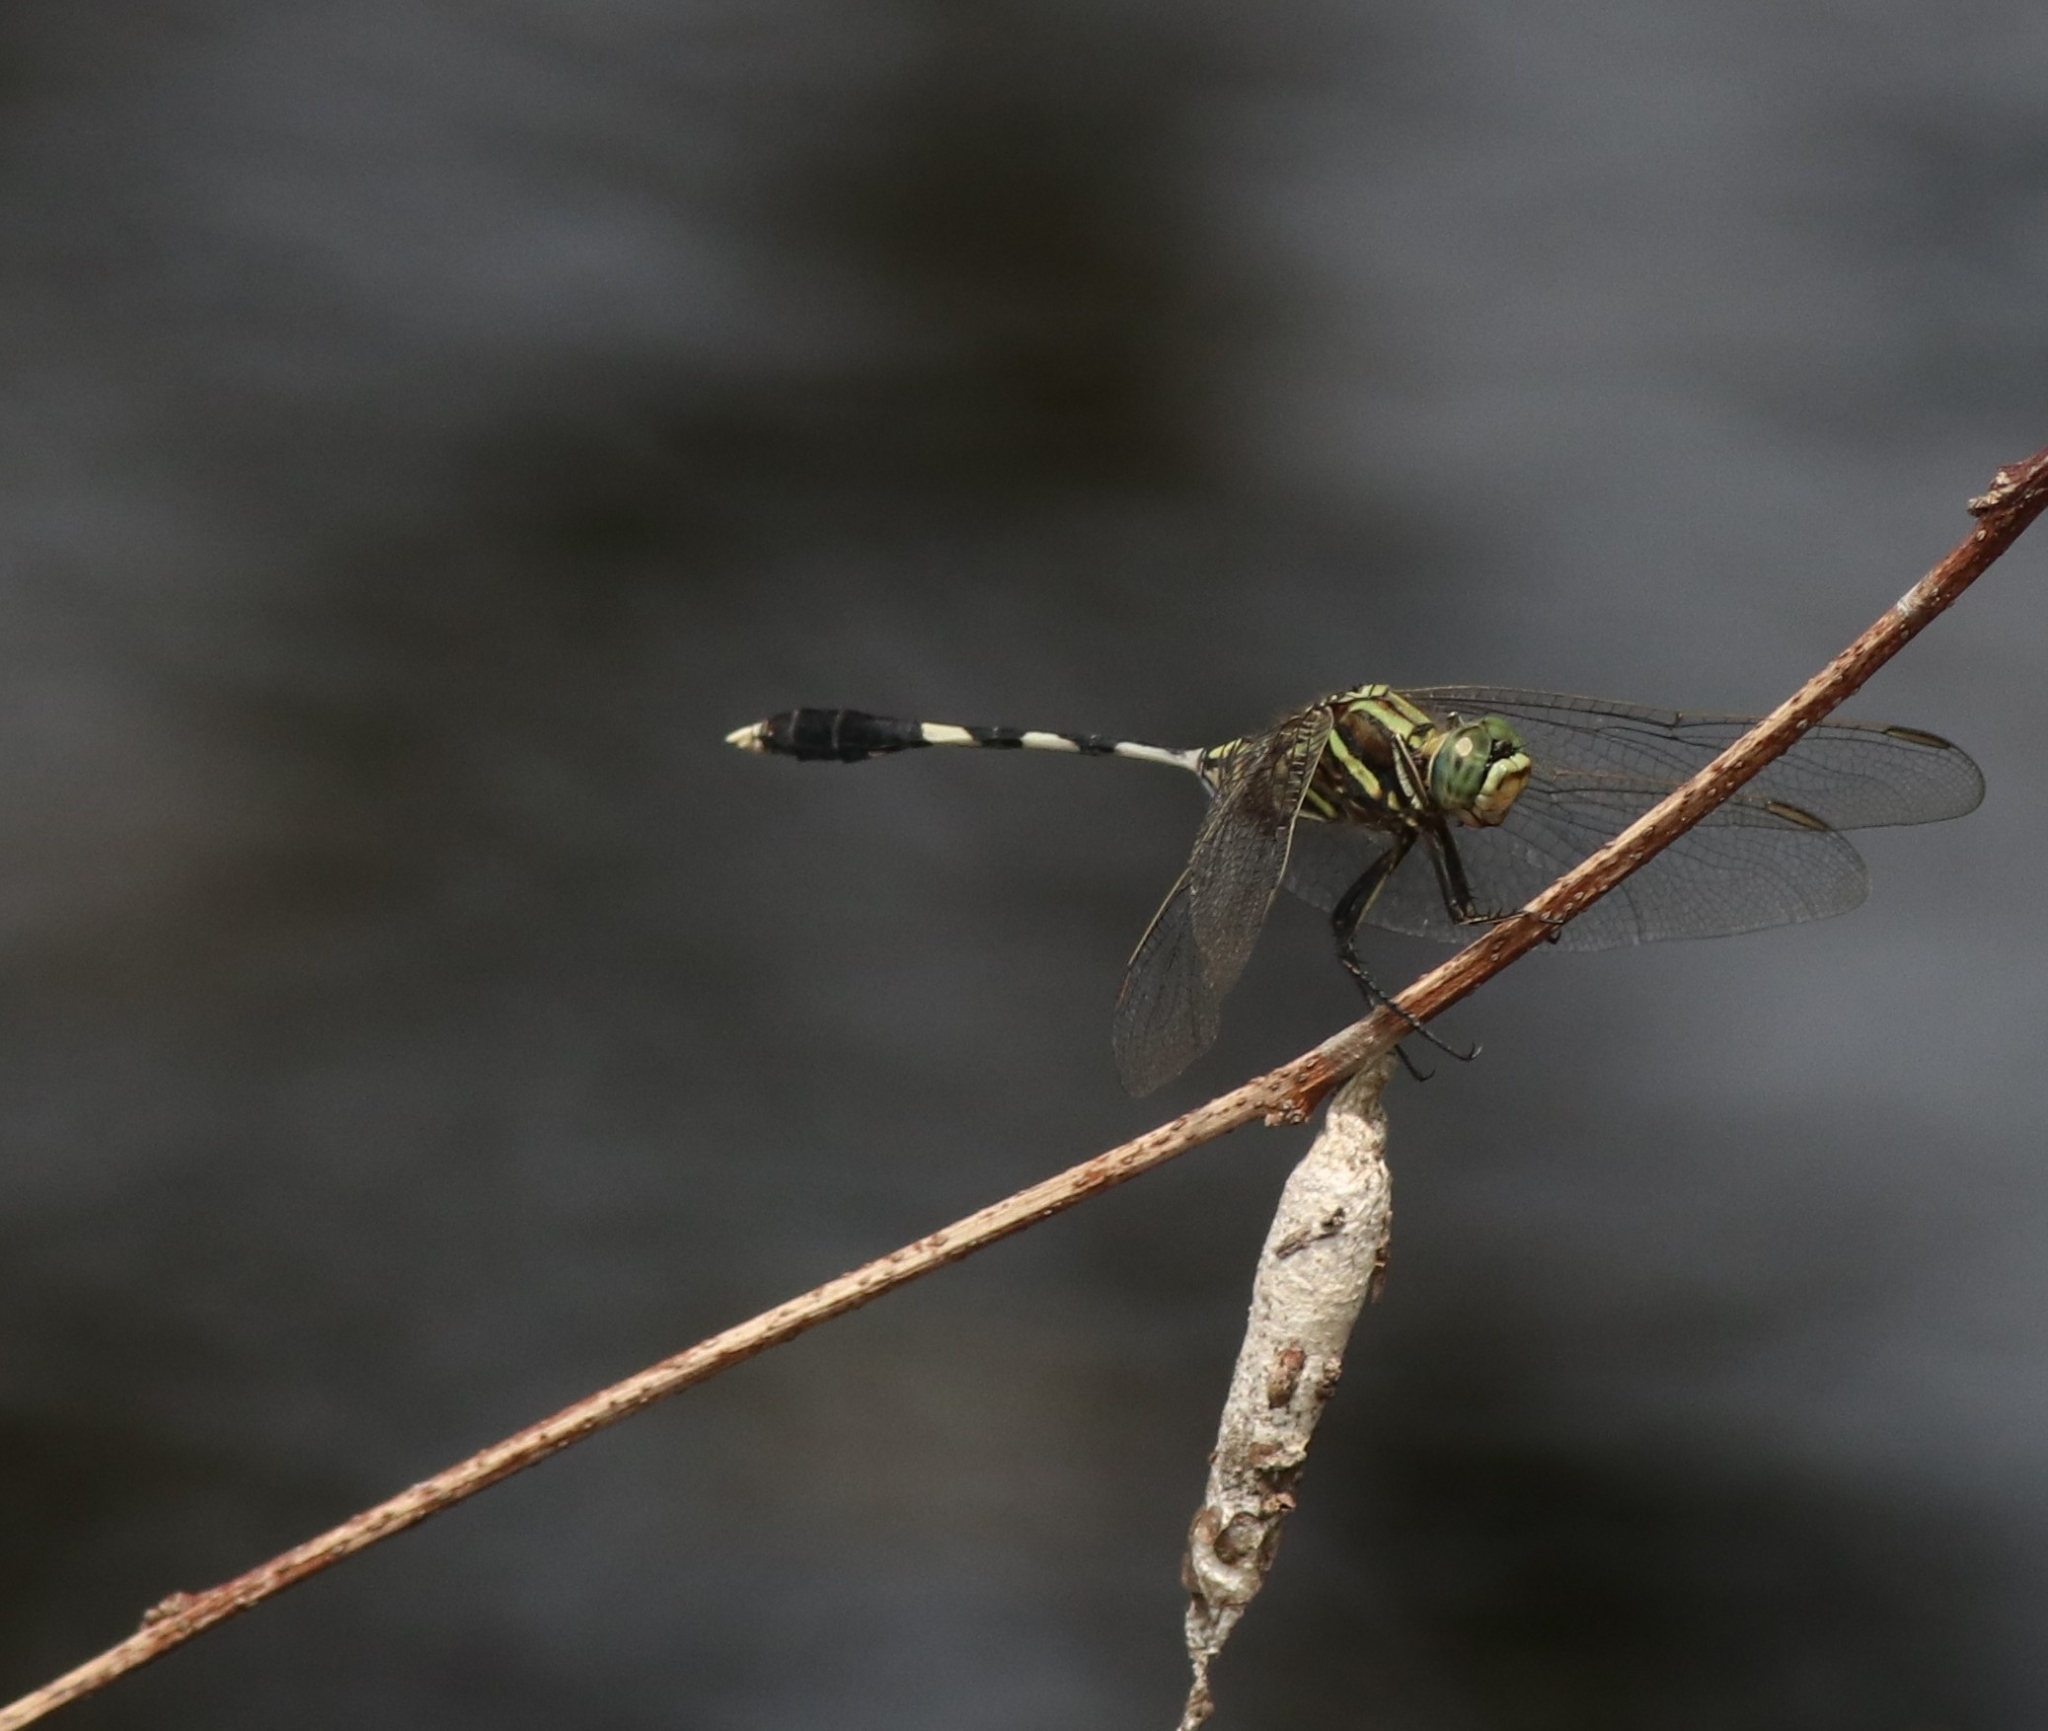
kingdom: Animalia
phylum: Arthropoda
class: Insecta
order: Odonata
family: Libellulidae
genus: Orthetrum
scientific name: Orthetrum sabina
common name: Slender skimmer
